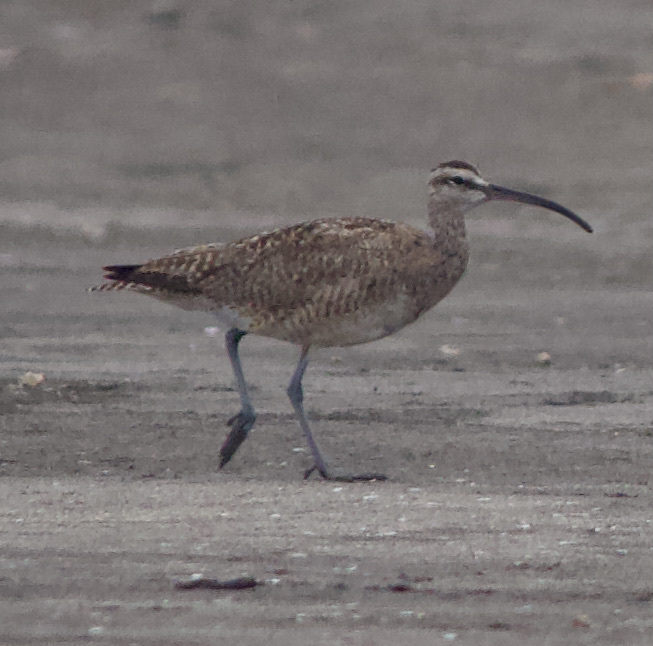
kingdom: Animalia
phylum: Chordata
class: Aves
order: Charadriiformes
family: Scolopacidae
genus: Numenius
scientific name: Numenius phaeopus
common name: Whimbrel
